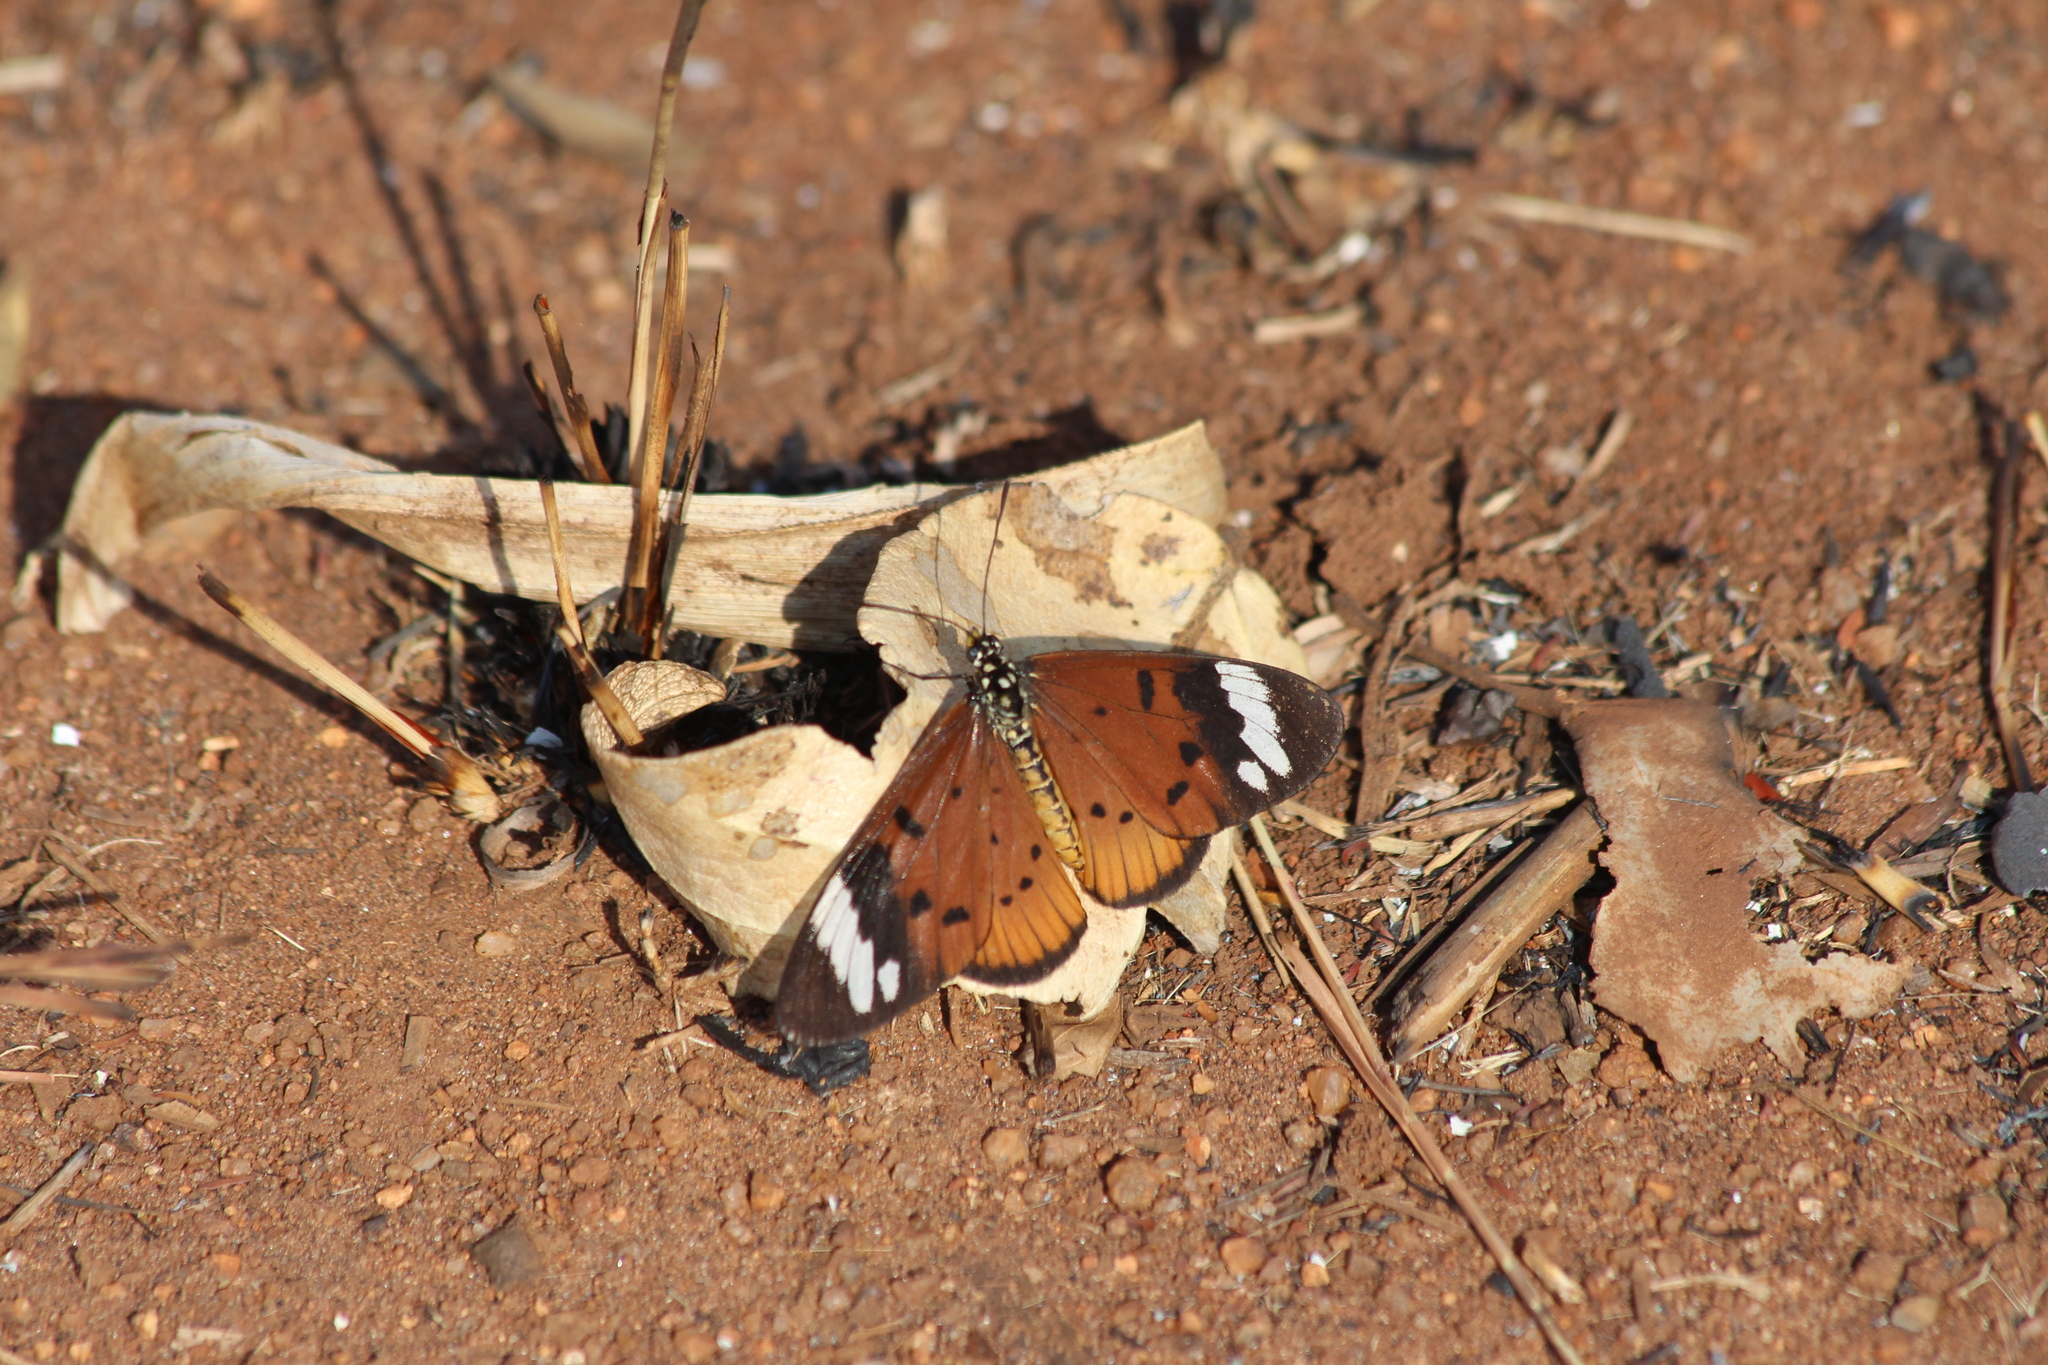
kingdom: Animalia
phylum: Arthropoda
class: Insecta
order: Lepidoptera
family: Nymphalidae
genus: Acraea
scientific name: Acraea Telchinia encedon
